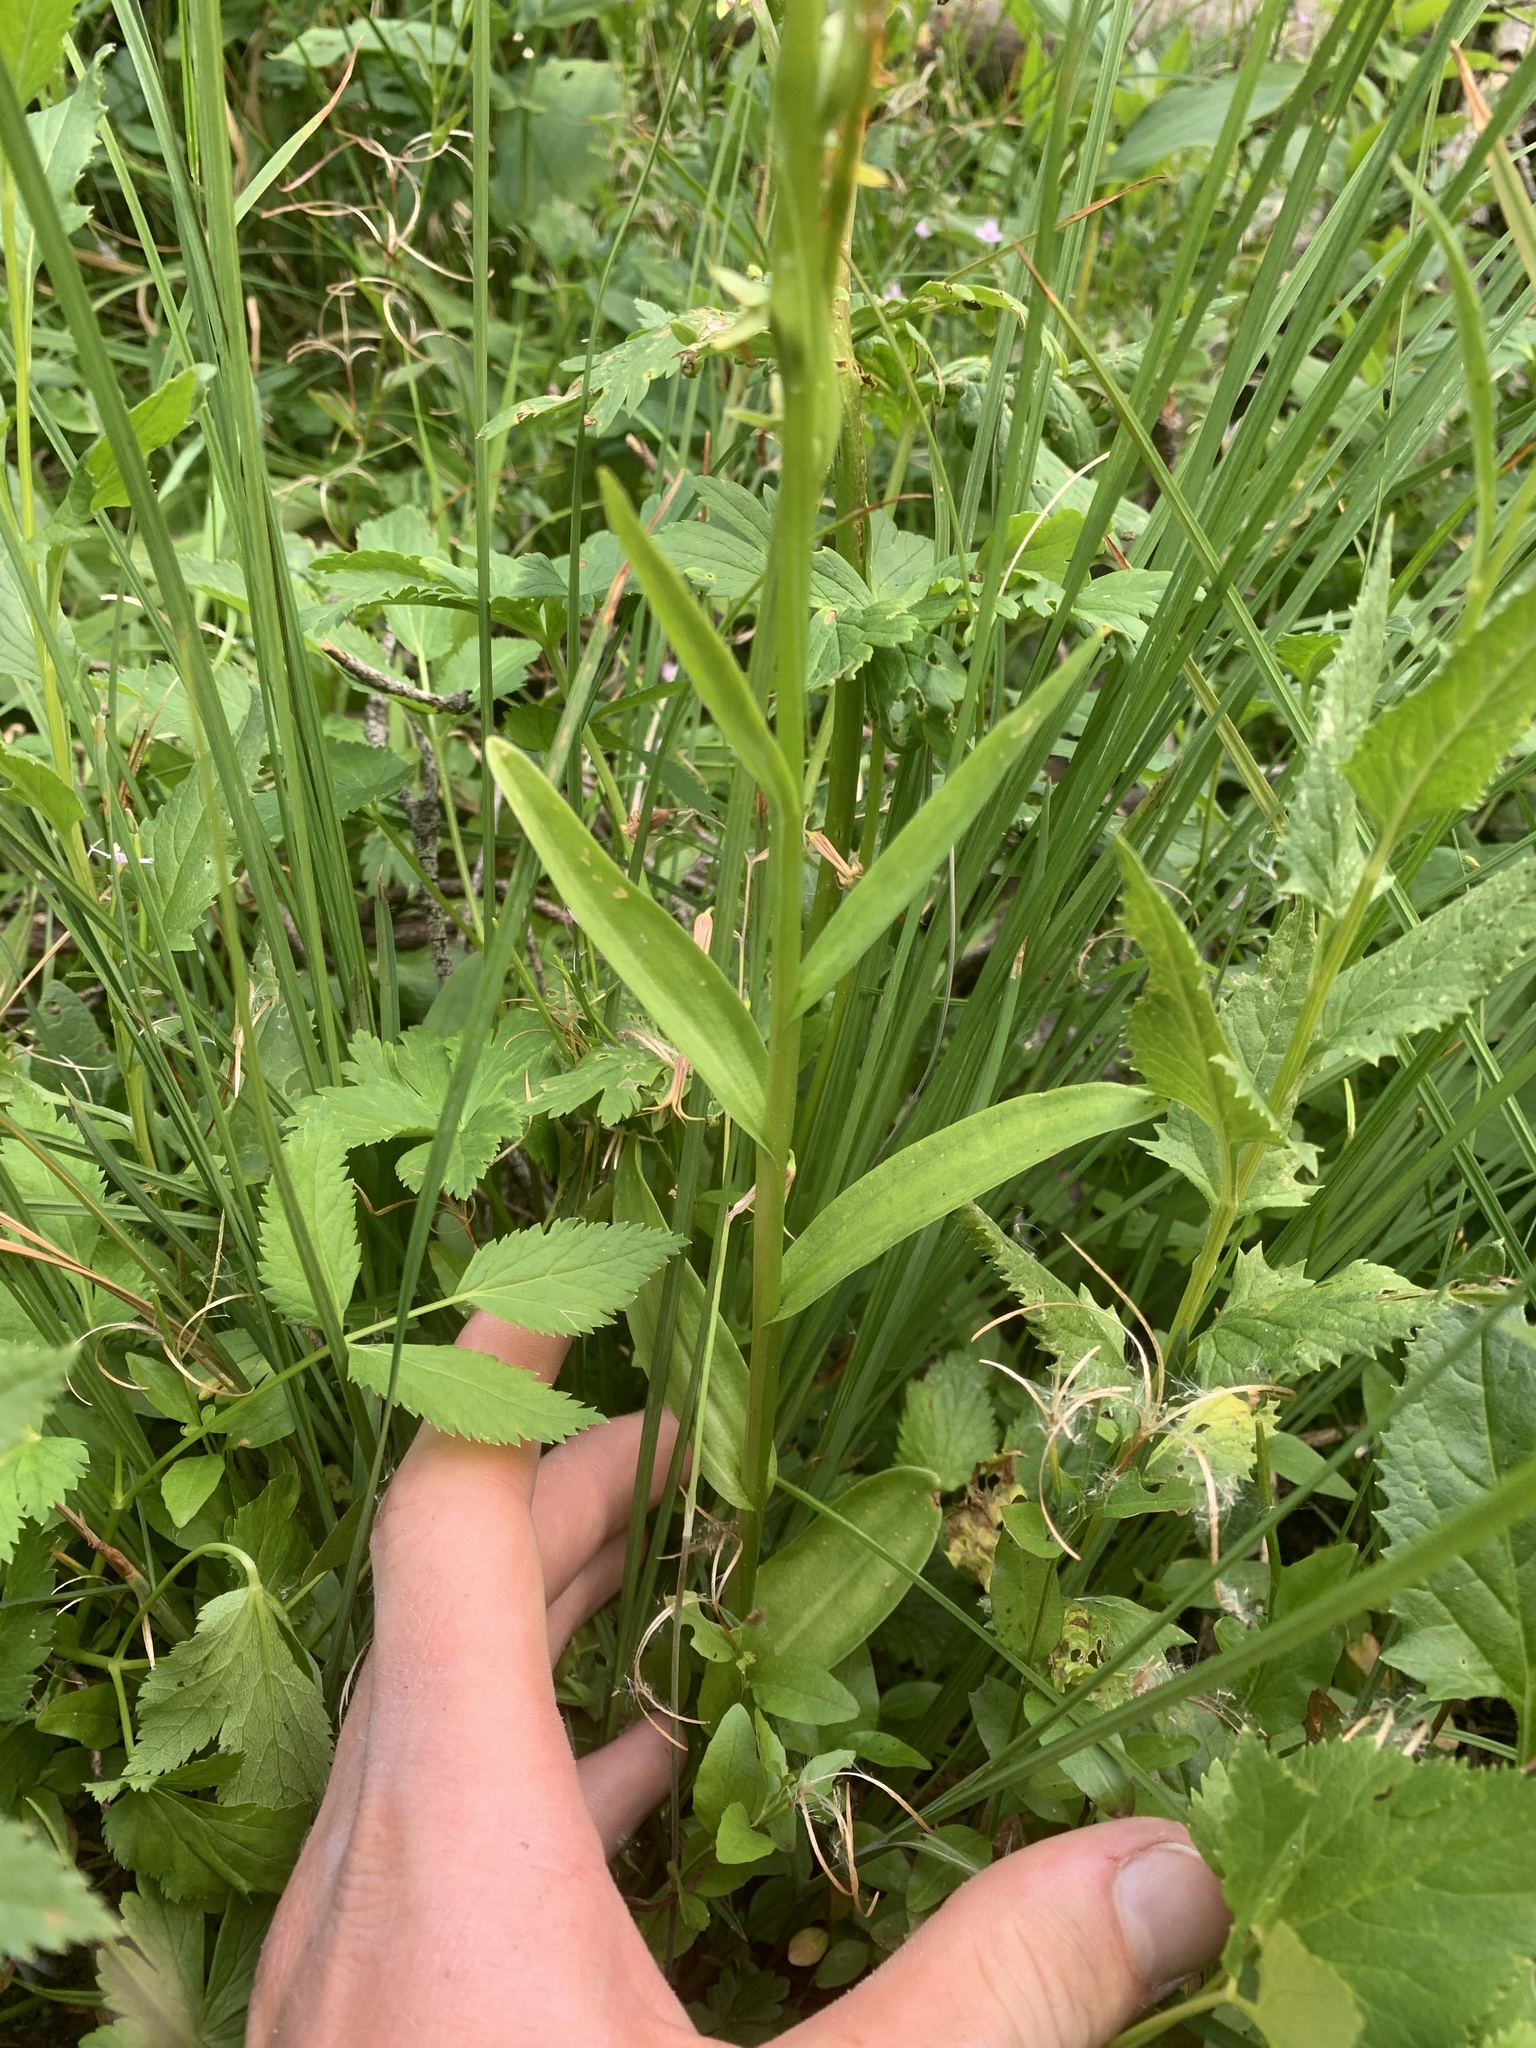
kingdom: Plantae
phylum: Tracheophyta
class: Liliopsida
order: Asparagales
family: Orchidaceae
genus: Platanthera
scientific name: Platanthera stricta
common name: Slender bog orchid
